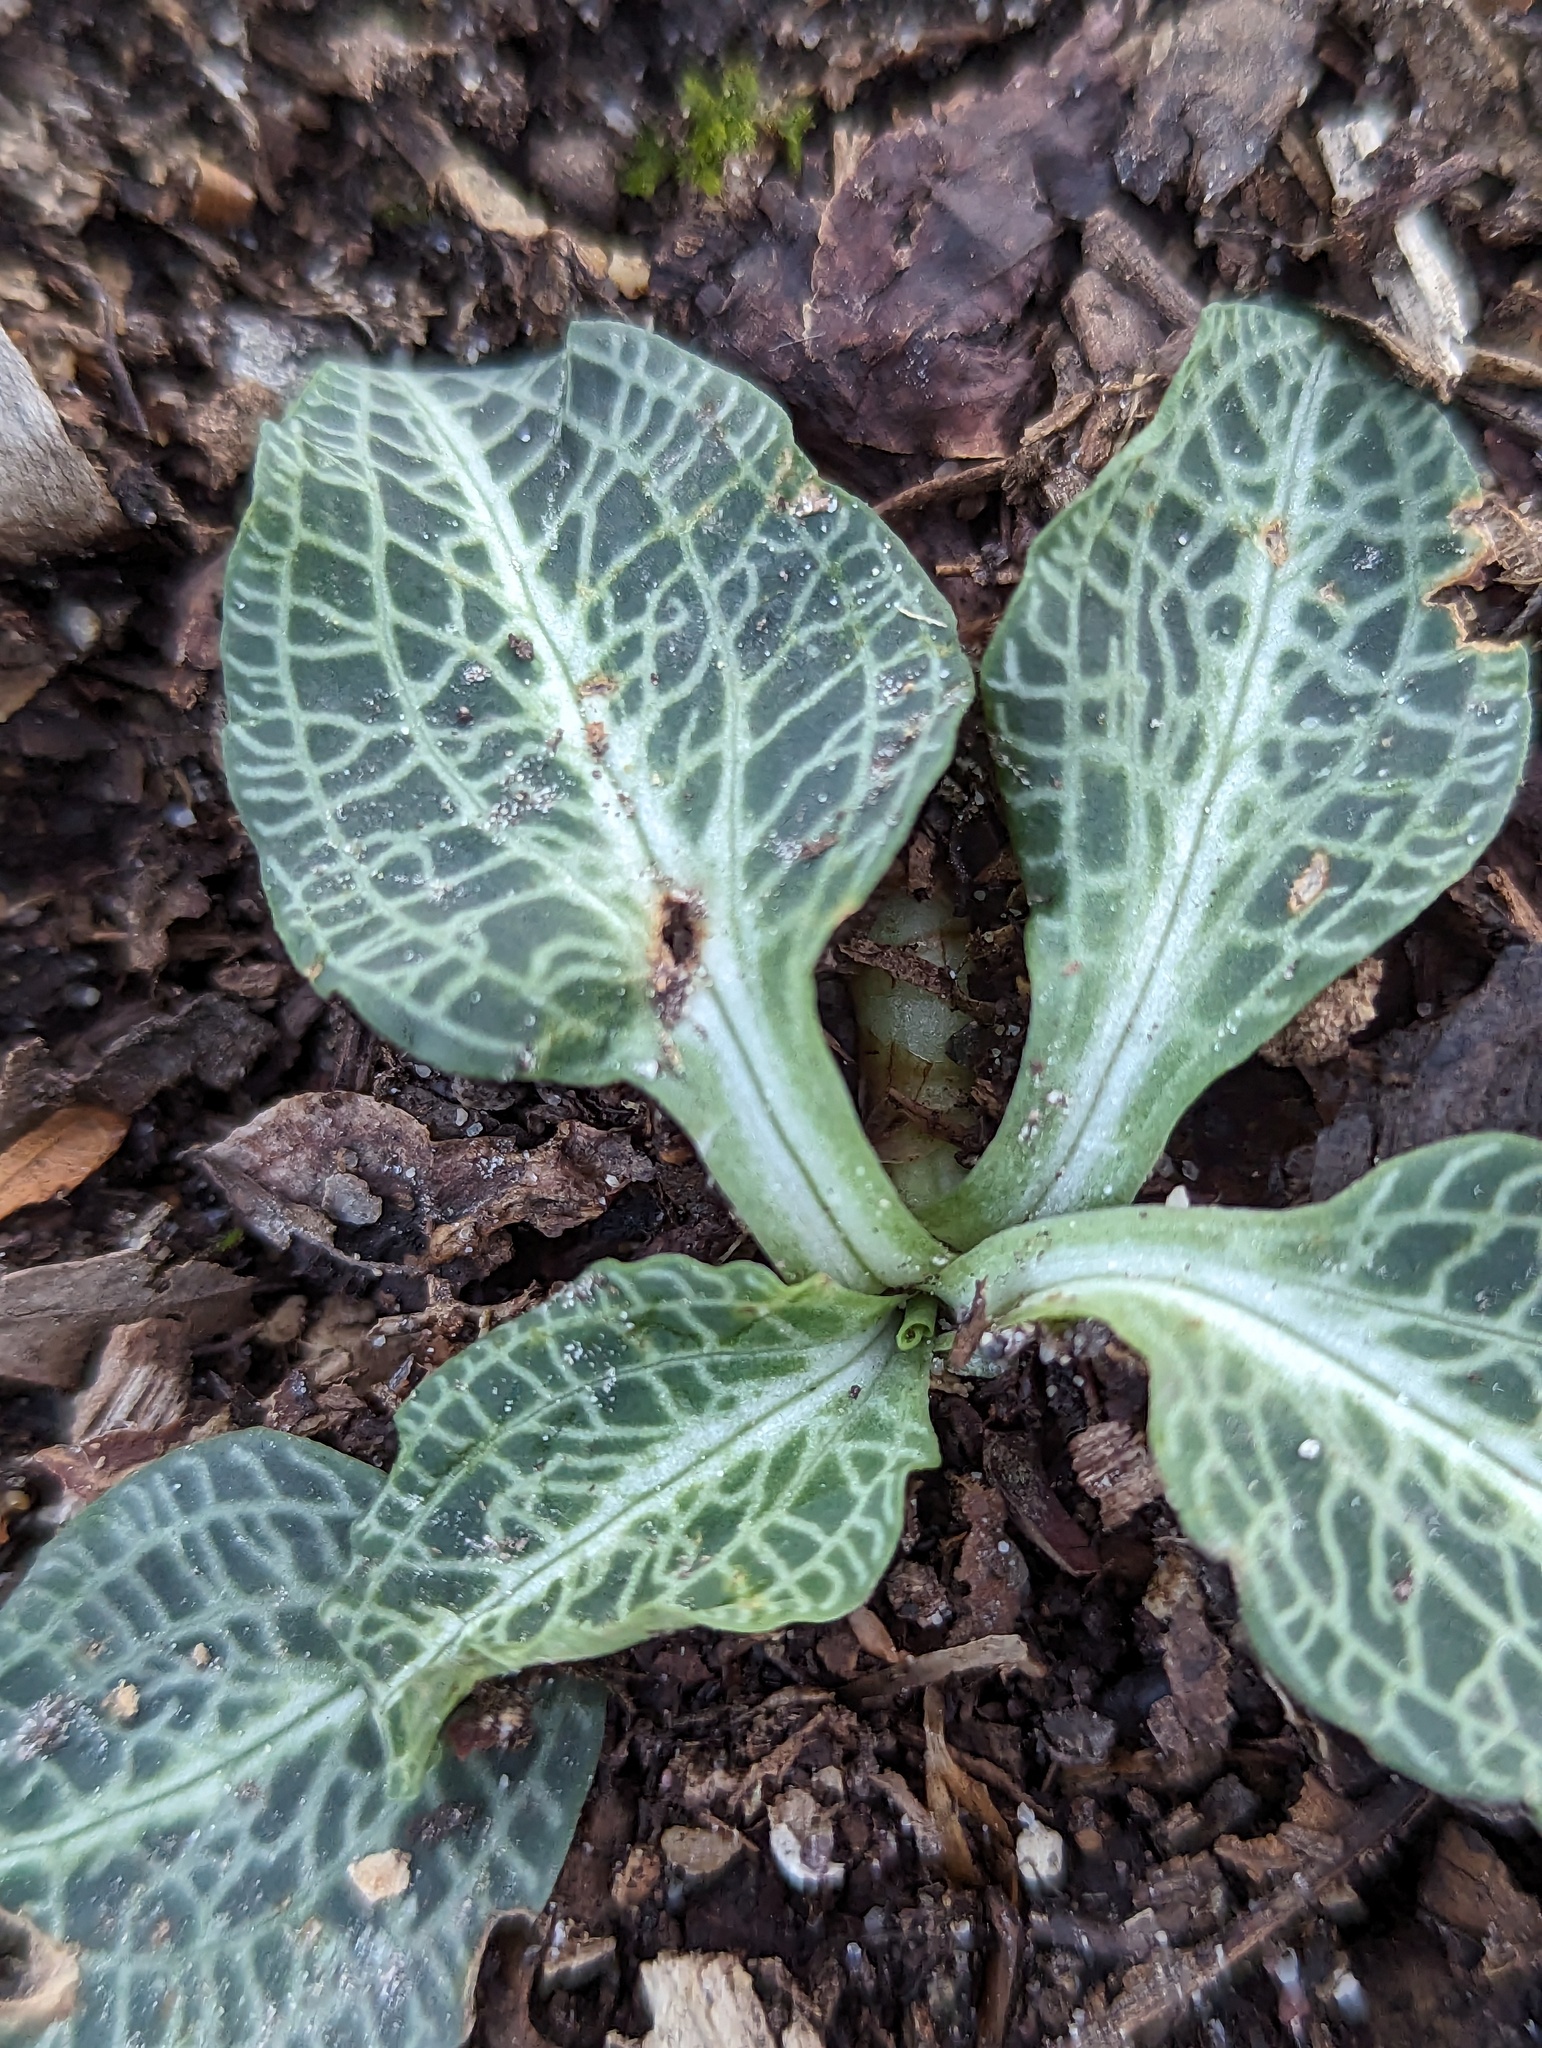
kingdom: Plantae
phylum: Tracheophyta
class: Liliopsida
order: Asparagales
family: Orchidaceae
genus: Goodyera
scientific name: Goodyera pubescens
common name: Downy rattlesnake-plantain
